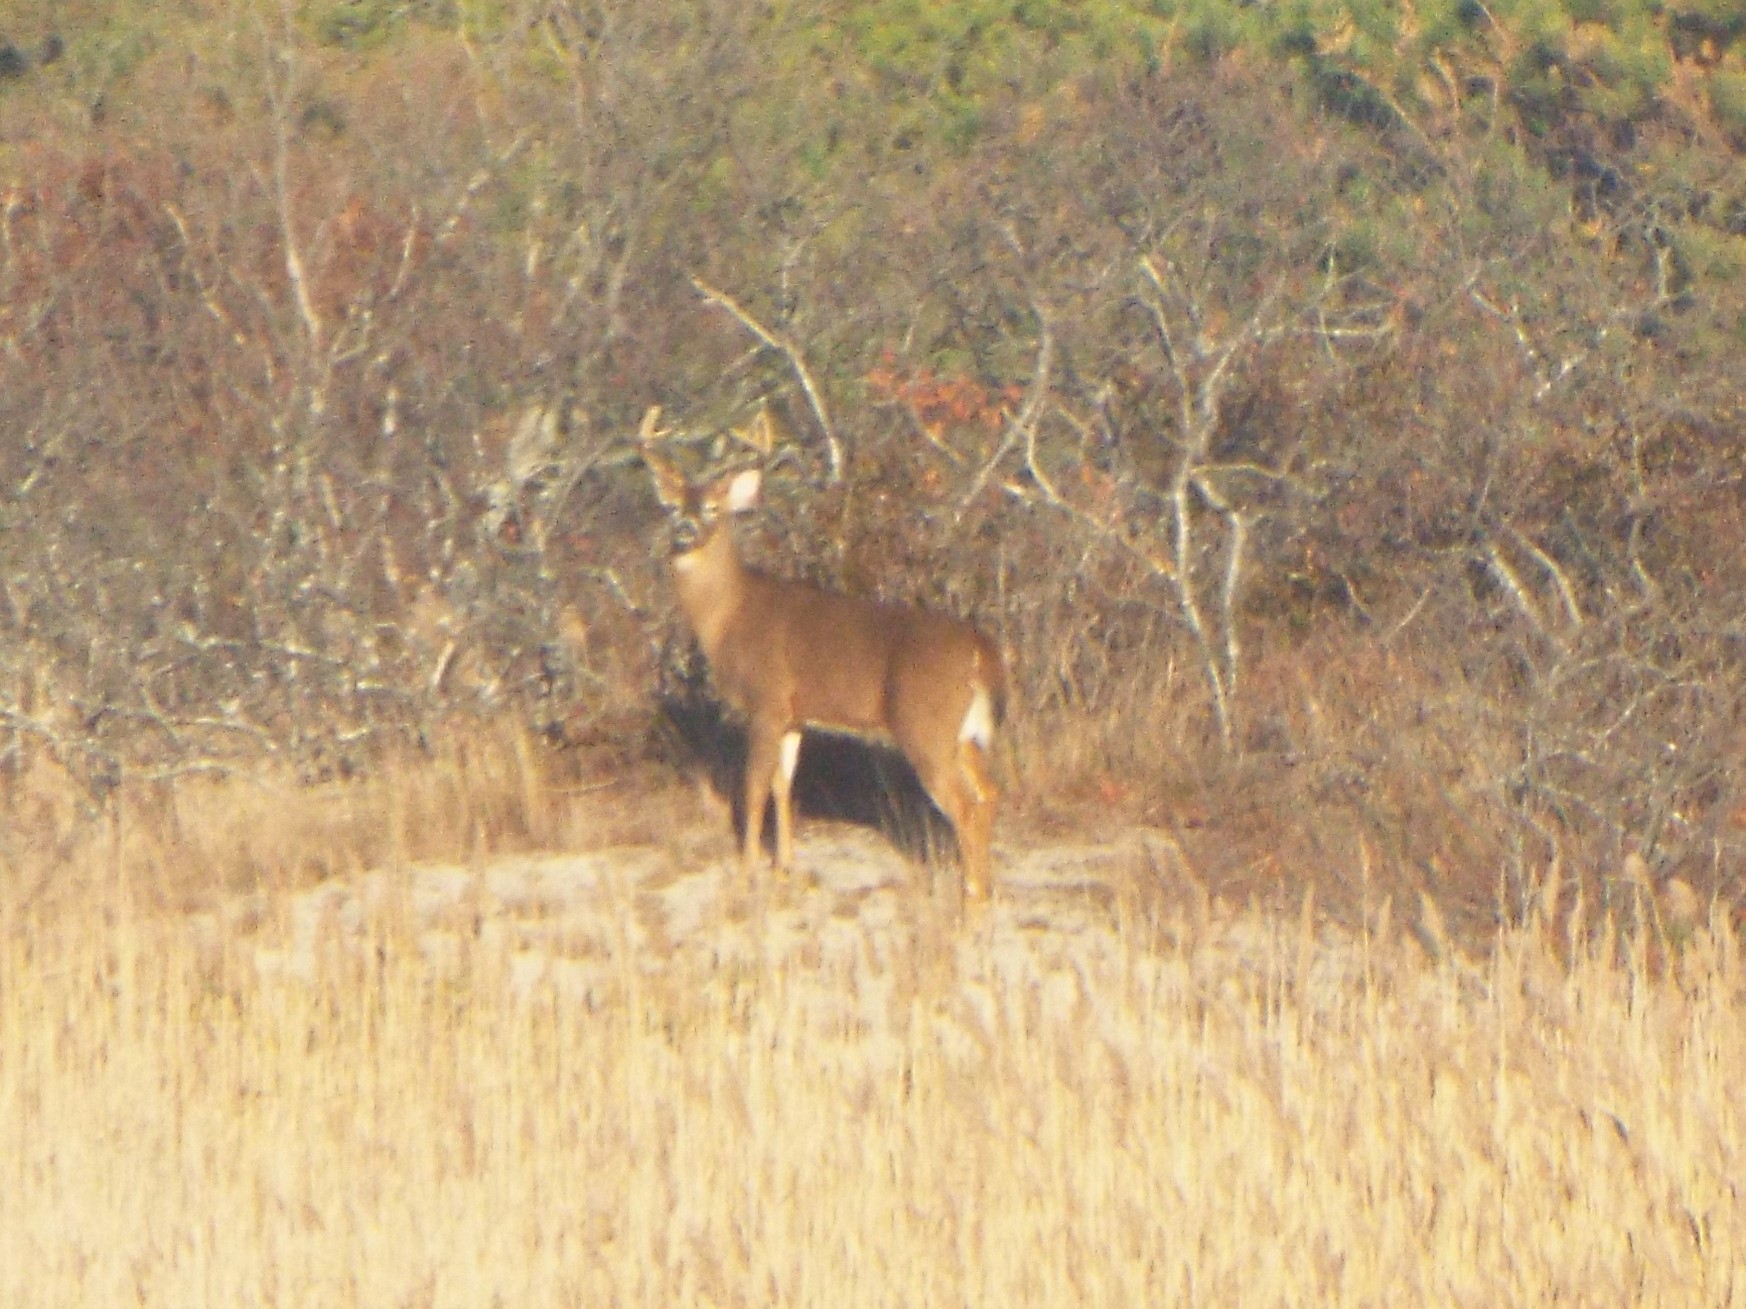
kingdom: Animalia
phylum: Chordata
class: Mammalia
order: Artiodactyla
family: Cervidae
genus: Odocoileus
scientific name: Odocoileus virginianus
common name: White-tailed deer
